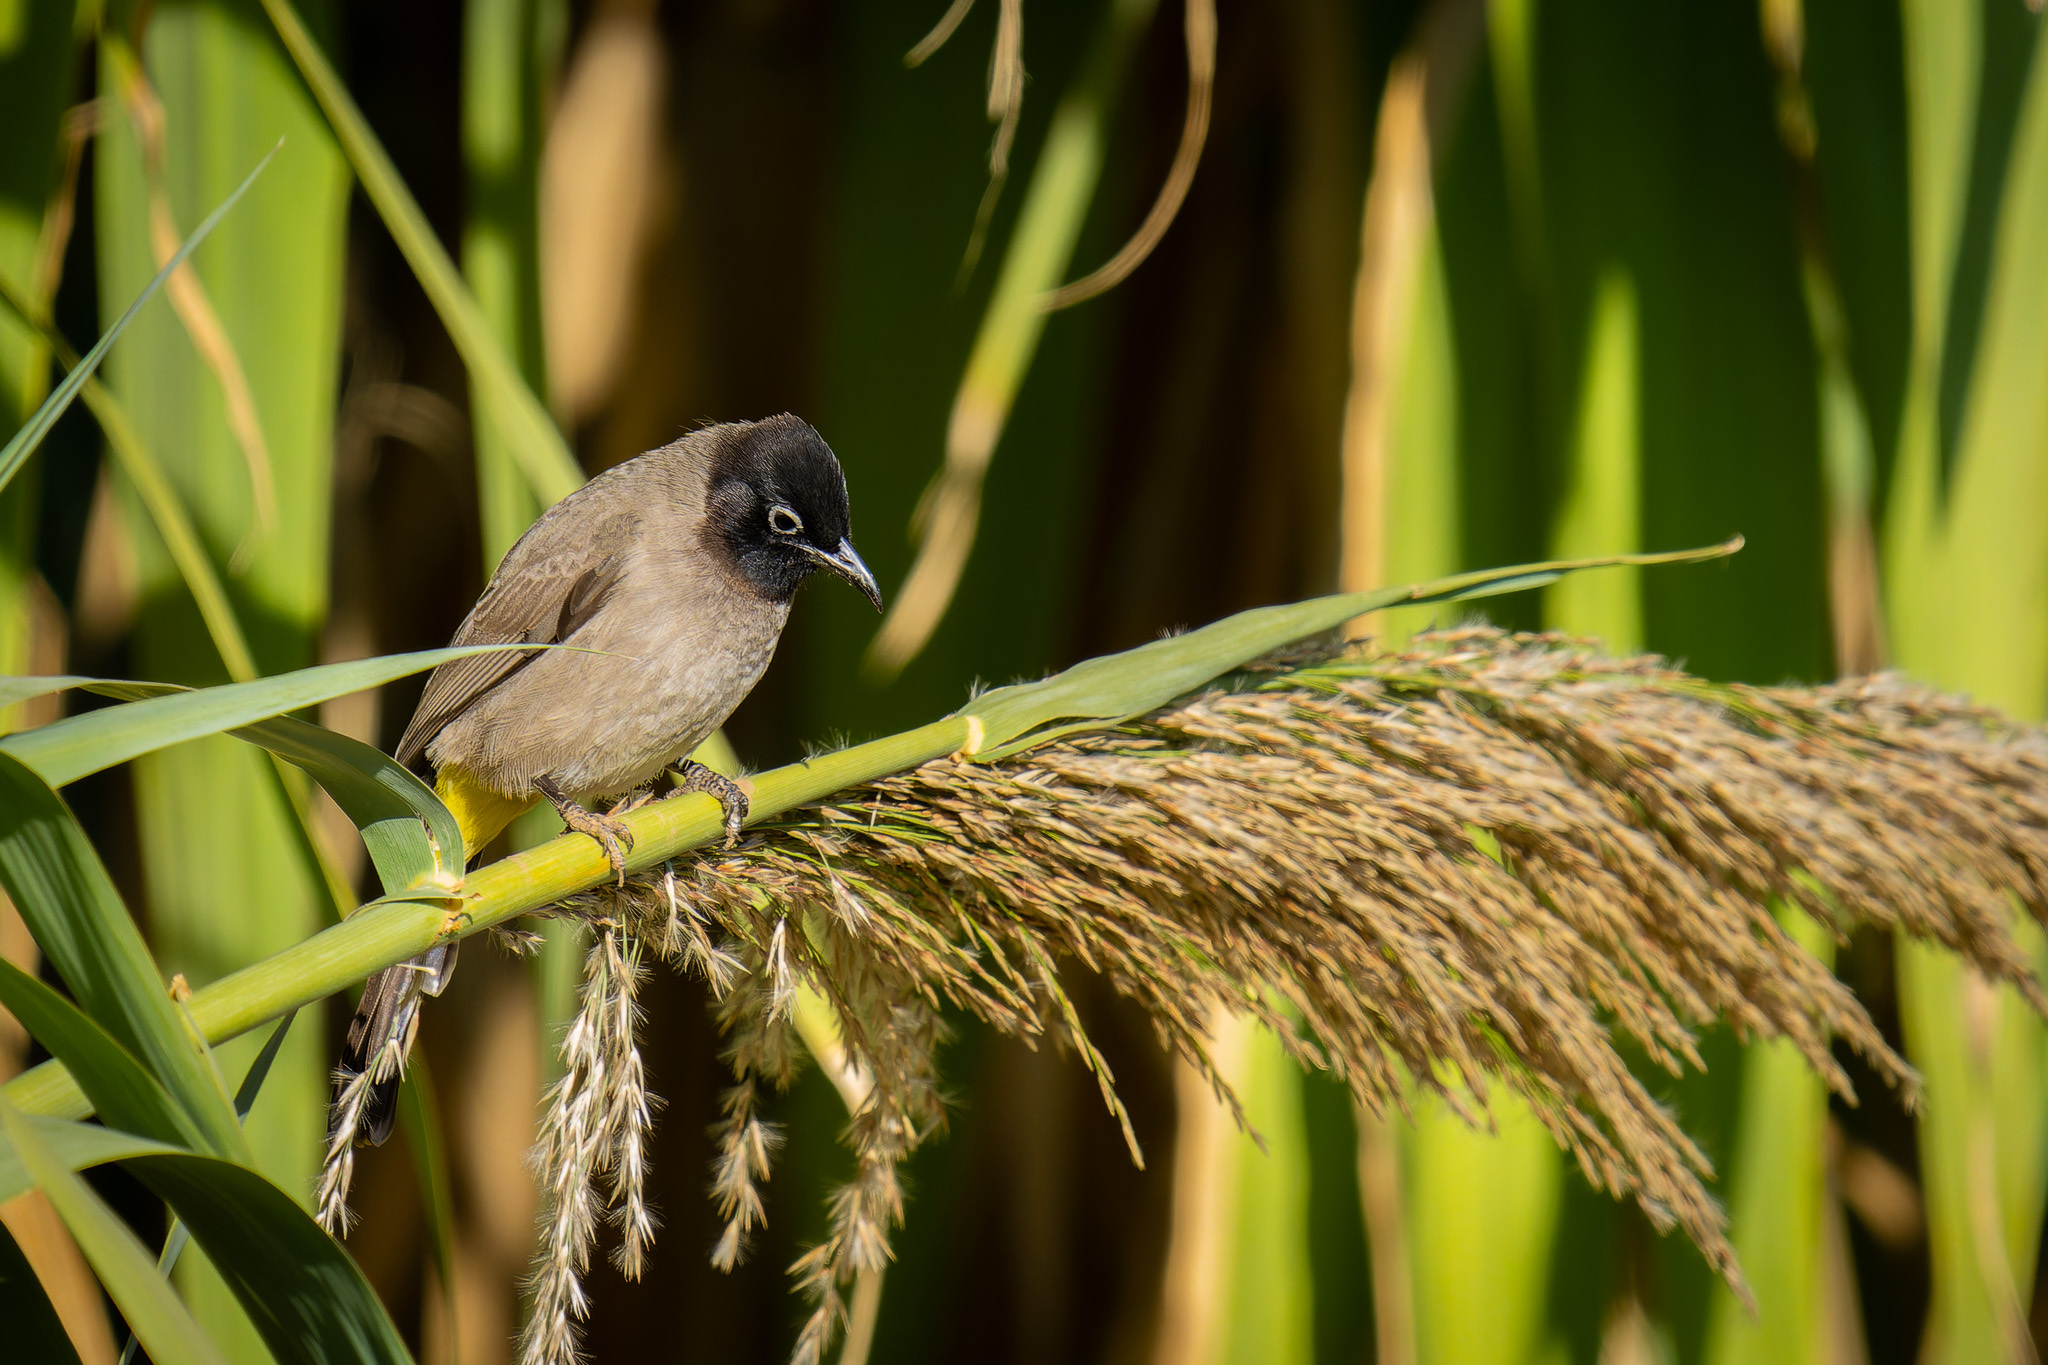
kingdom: Animalia
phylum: Chordata
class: Aves
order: Passeriformes
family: Pycnonotidae
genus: Pycnonotus
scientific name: Pycnonotus xanthopygos
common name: White-spectacled bulbul
